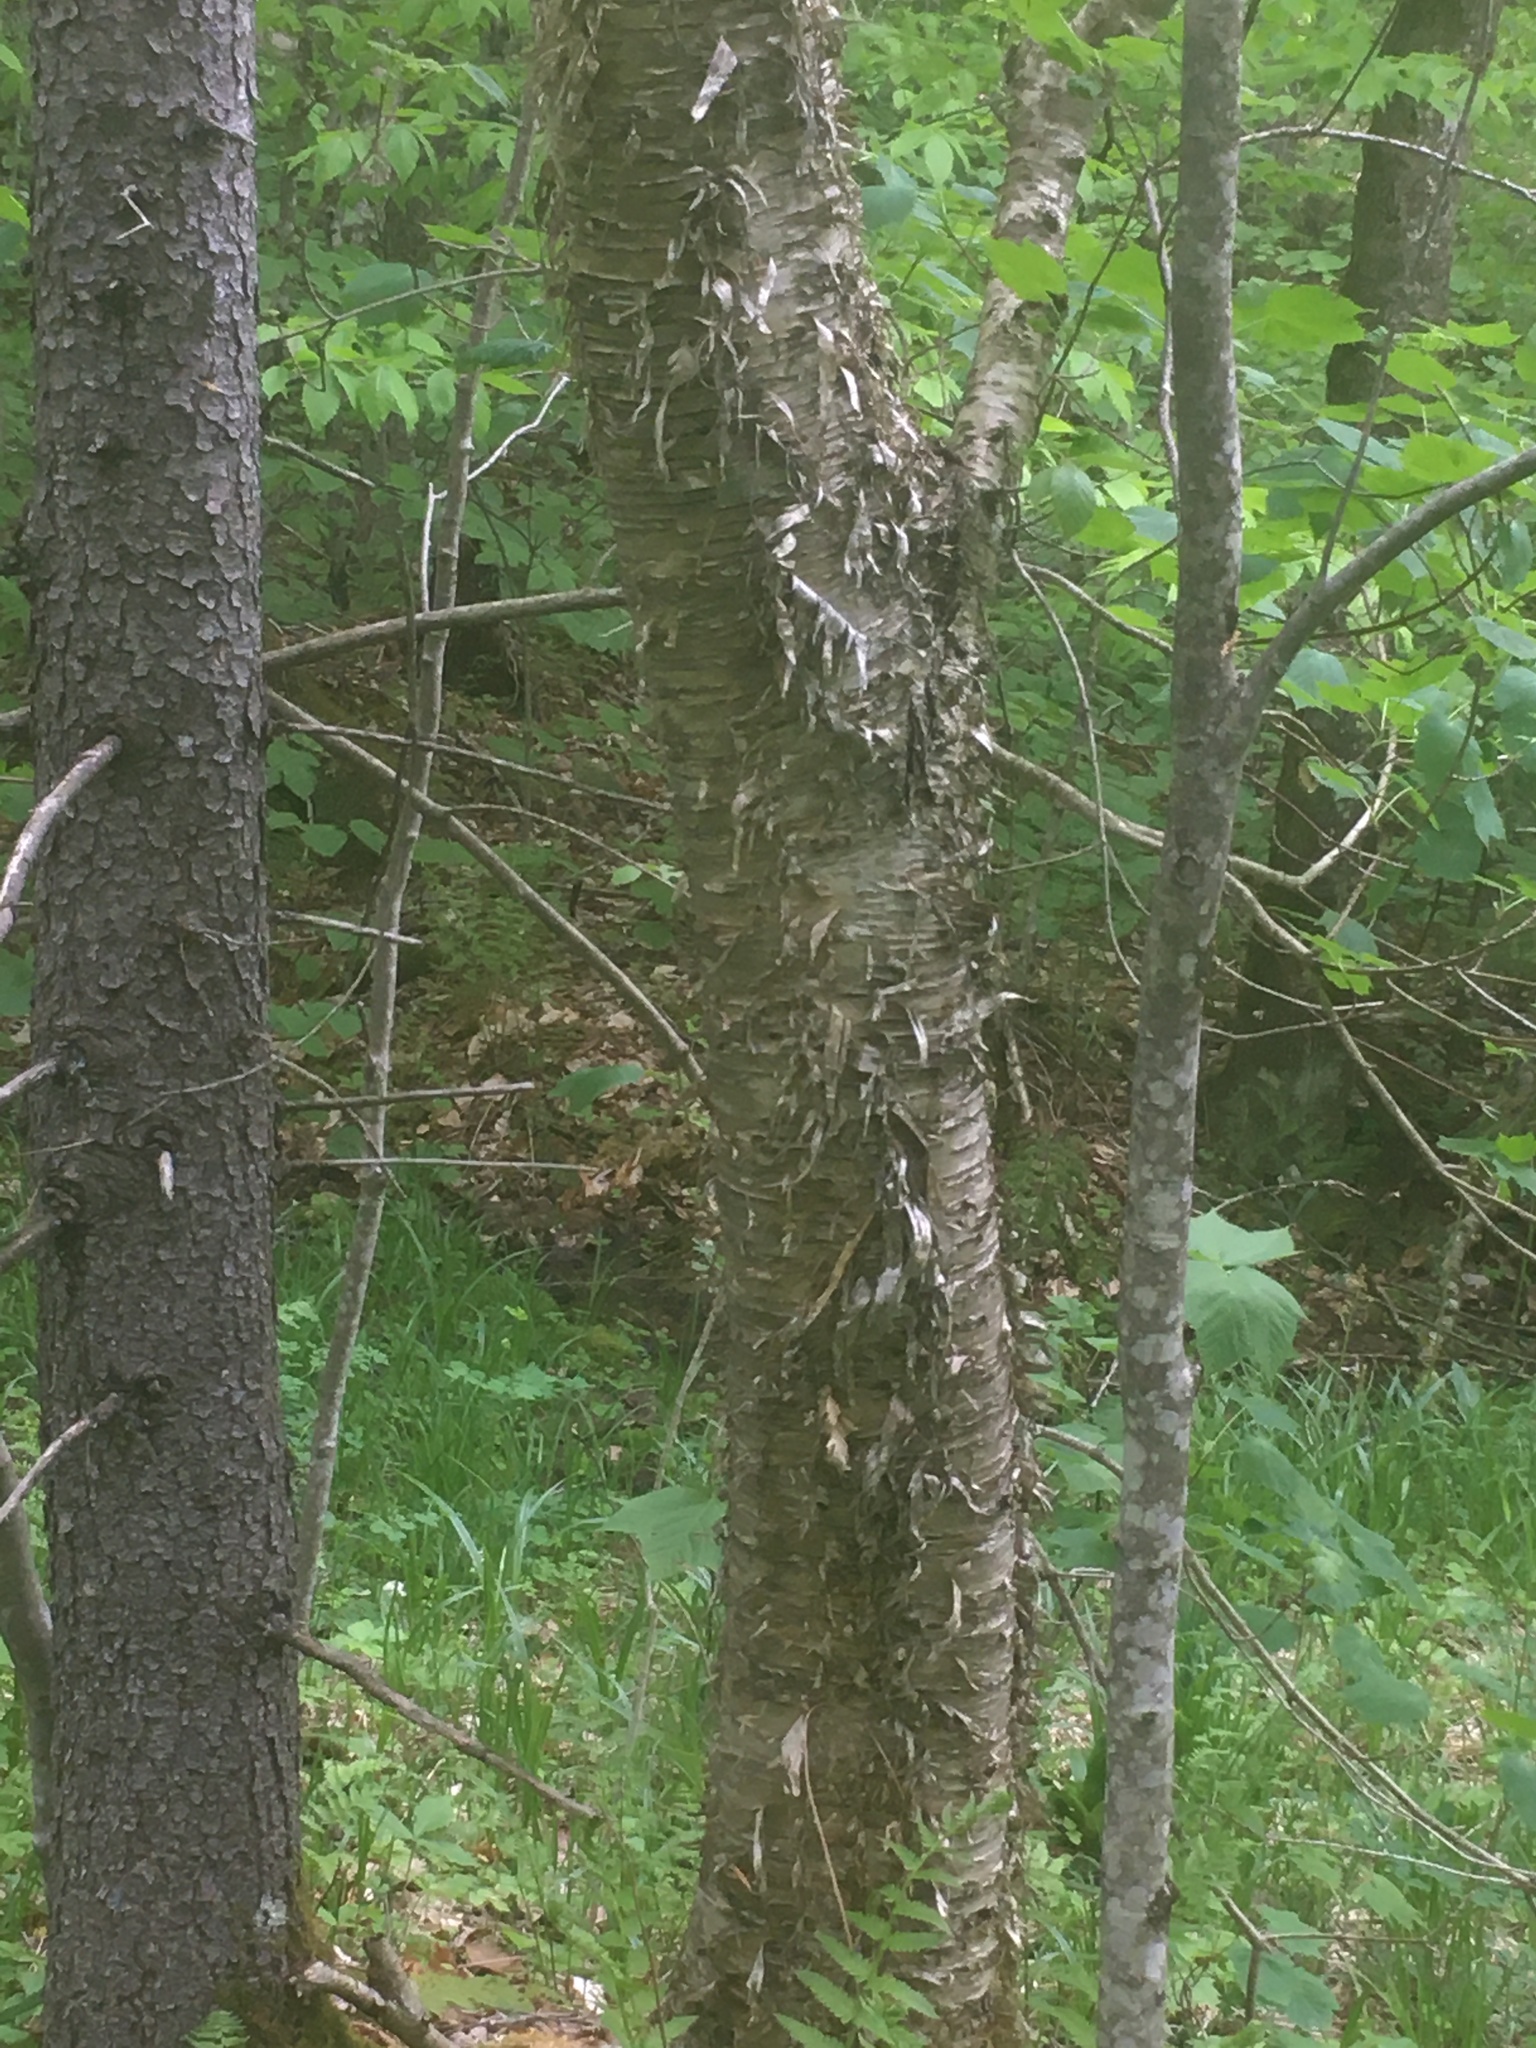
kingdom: Plantae
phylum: Tracheophyta
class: Magnoliopsida
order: Fagales
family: Betulaceae
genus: Betula
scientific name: Betula alleghaniensis
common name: Yellow birch
